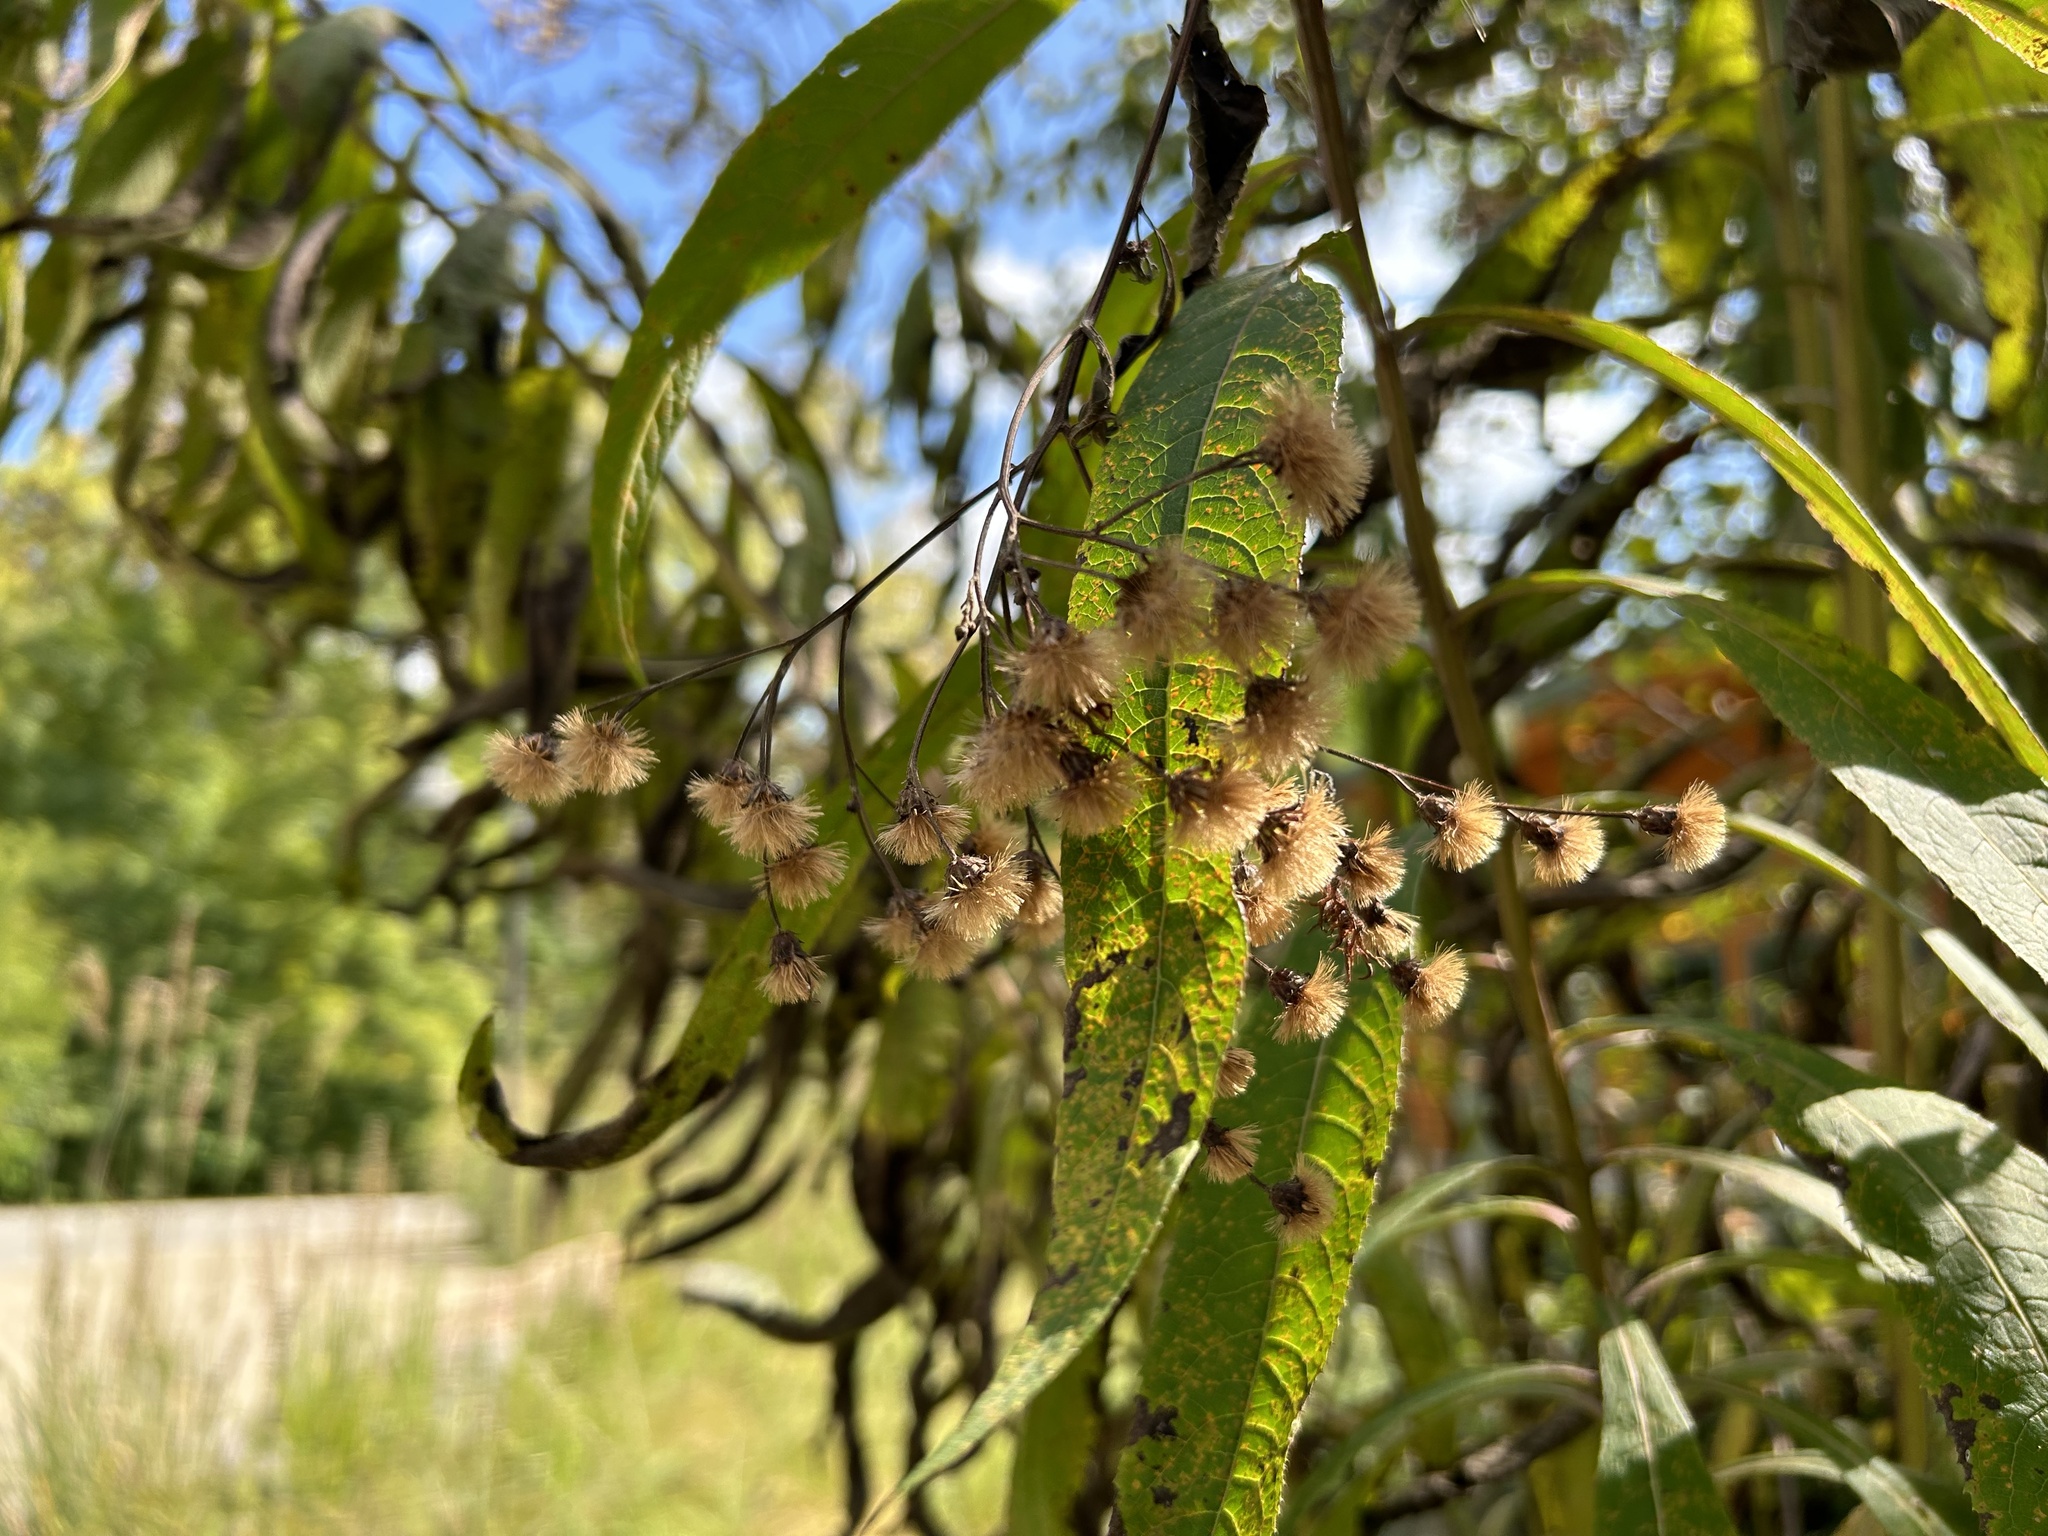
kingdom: Plantae
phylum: Tracheophyta
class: Magnoliopsida
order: Asterales
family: Asteraceae
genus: Vernonia
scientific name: Vernonia gigantea
